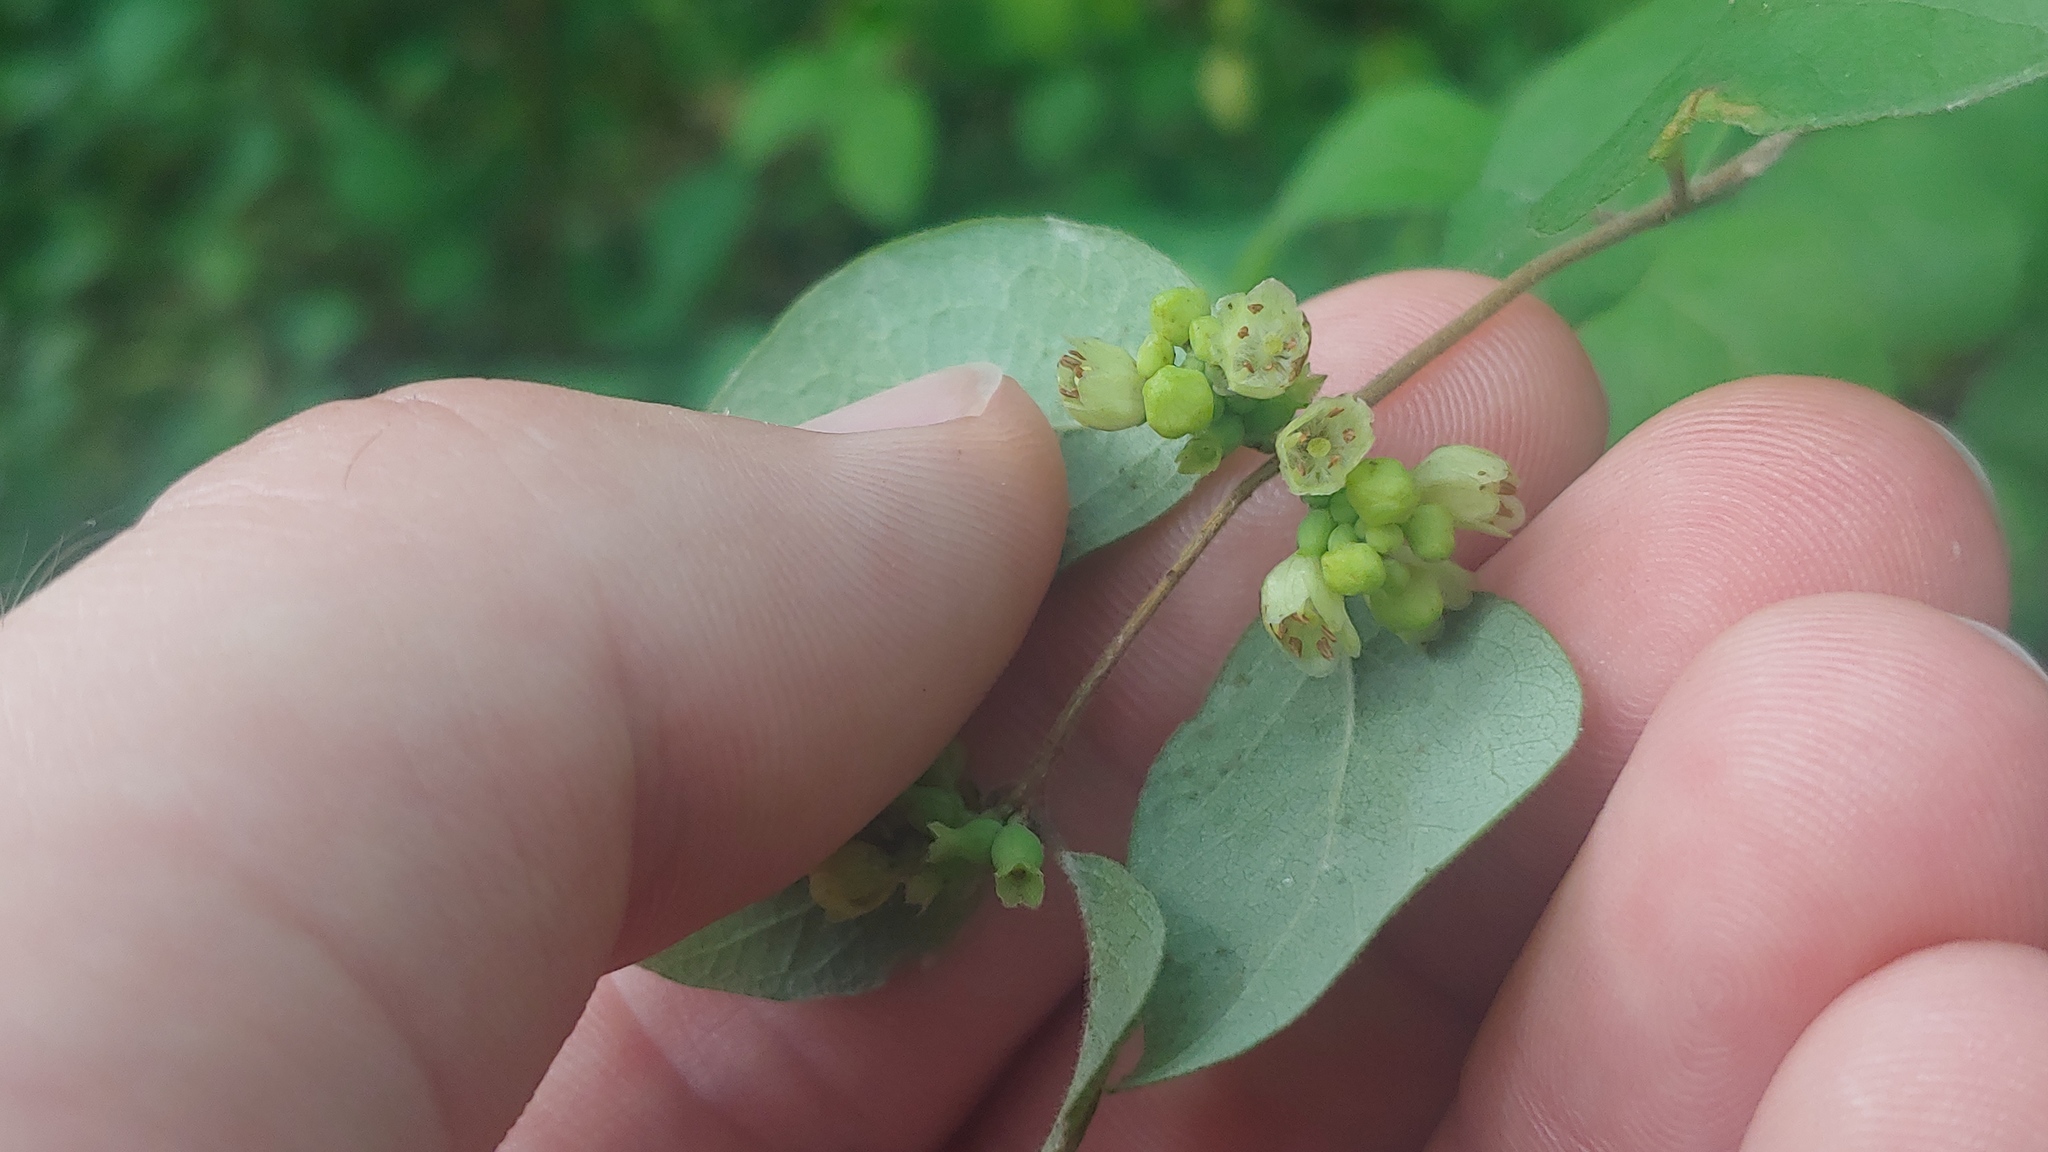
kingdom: Plantae
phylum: Tracheophyta
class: Magnoliopsida
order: Dipsacales
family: Caprifoliaceae
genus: Symphoricarpos
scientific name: Symphoricarpos orbiculatus
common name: Coralberry
